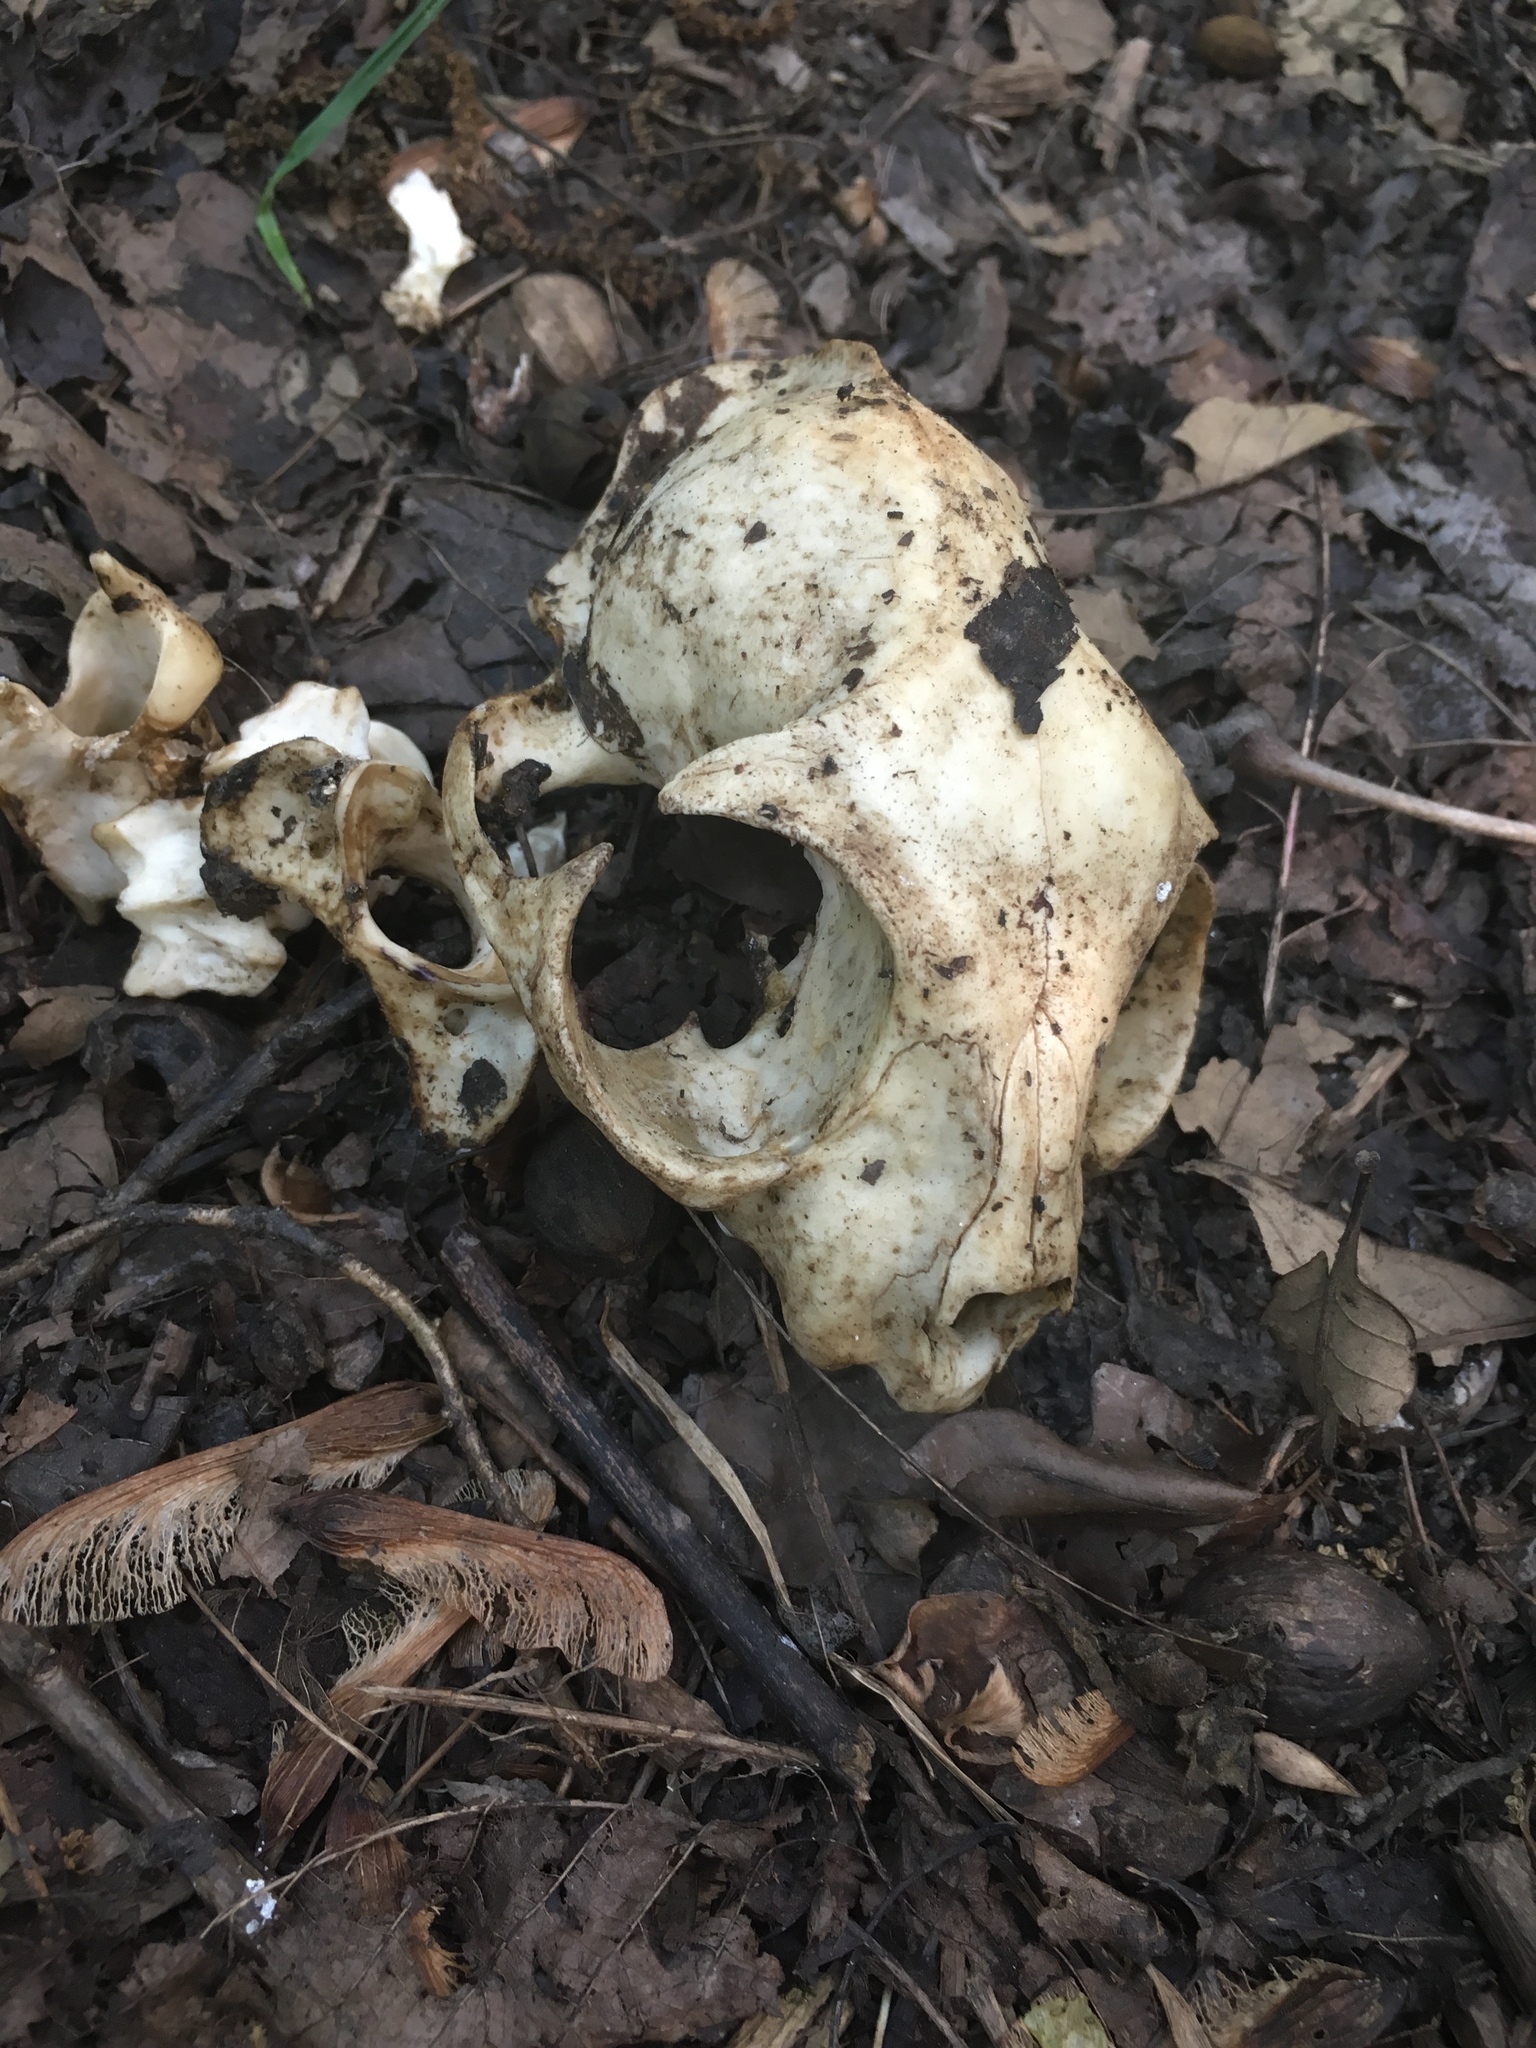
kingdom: Animalia
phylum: Chordata
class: Mammalia
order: Carnivora
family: Felidae
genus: Felis
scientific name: Felis catus
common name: Domestic cat
